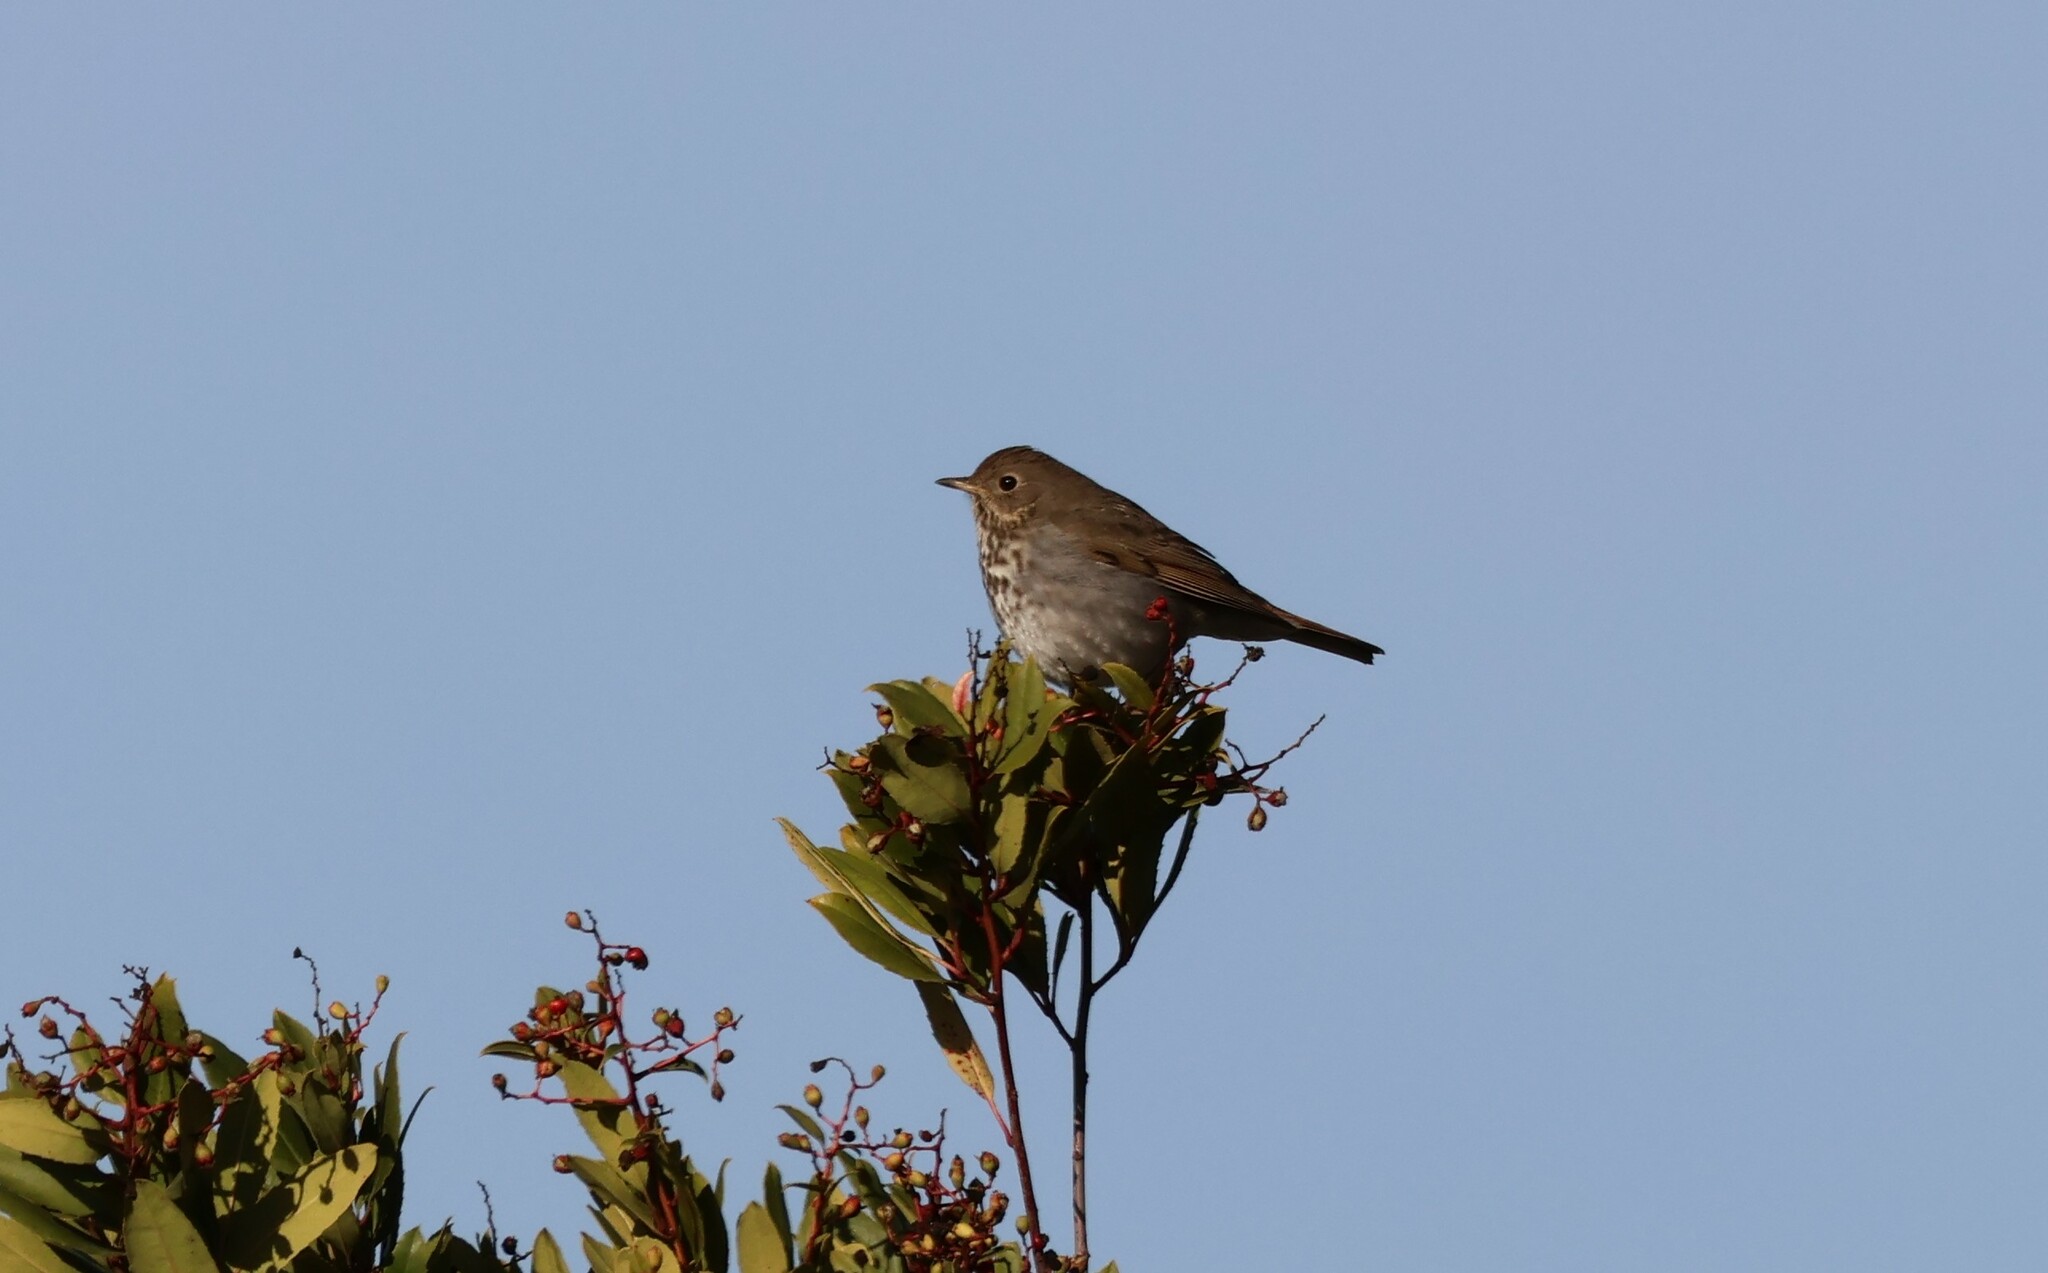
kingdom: Animalia
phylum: Chordata
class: Aves
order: Passeriformes
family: Turdidae
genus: Catharus
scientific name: Catharus guttatus
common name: Hermit thrush
